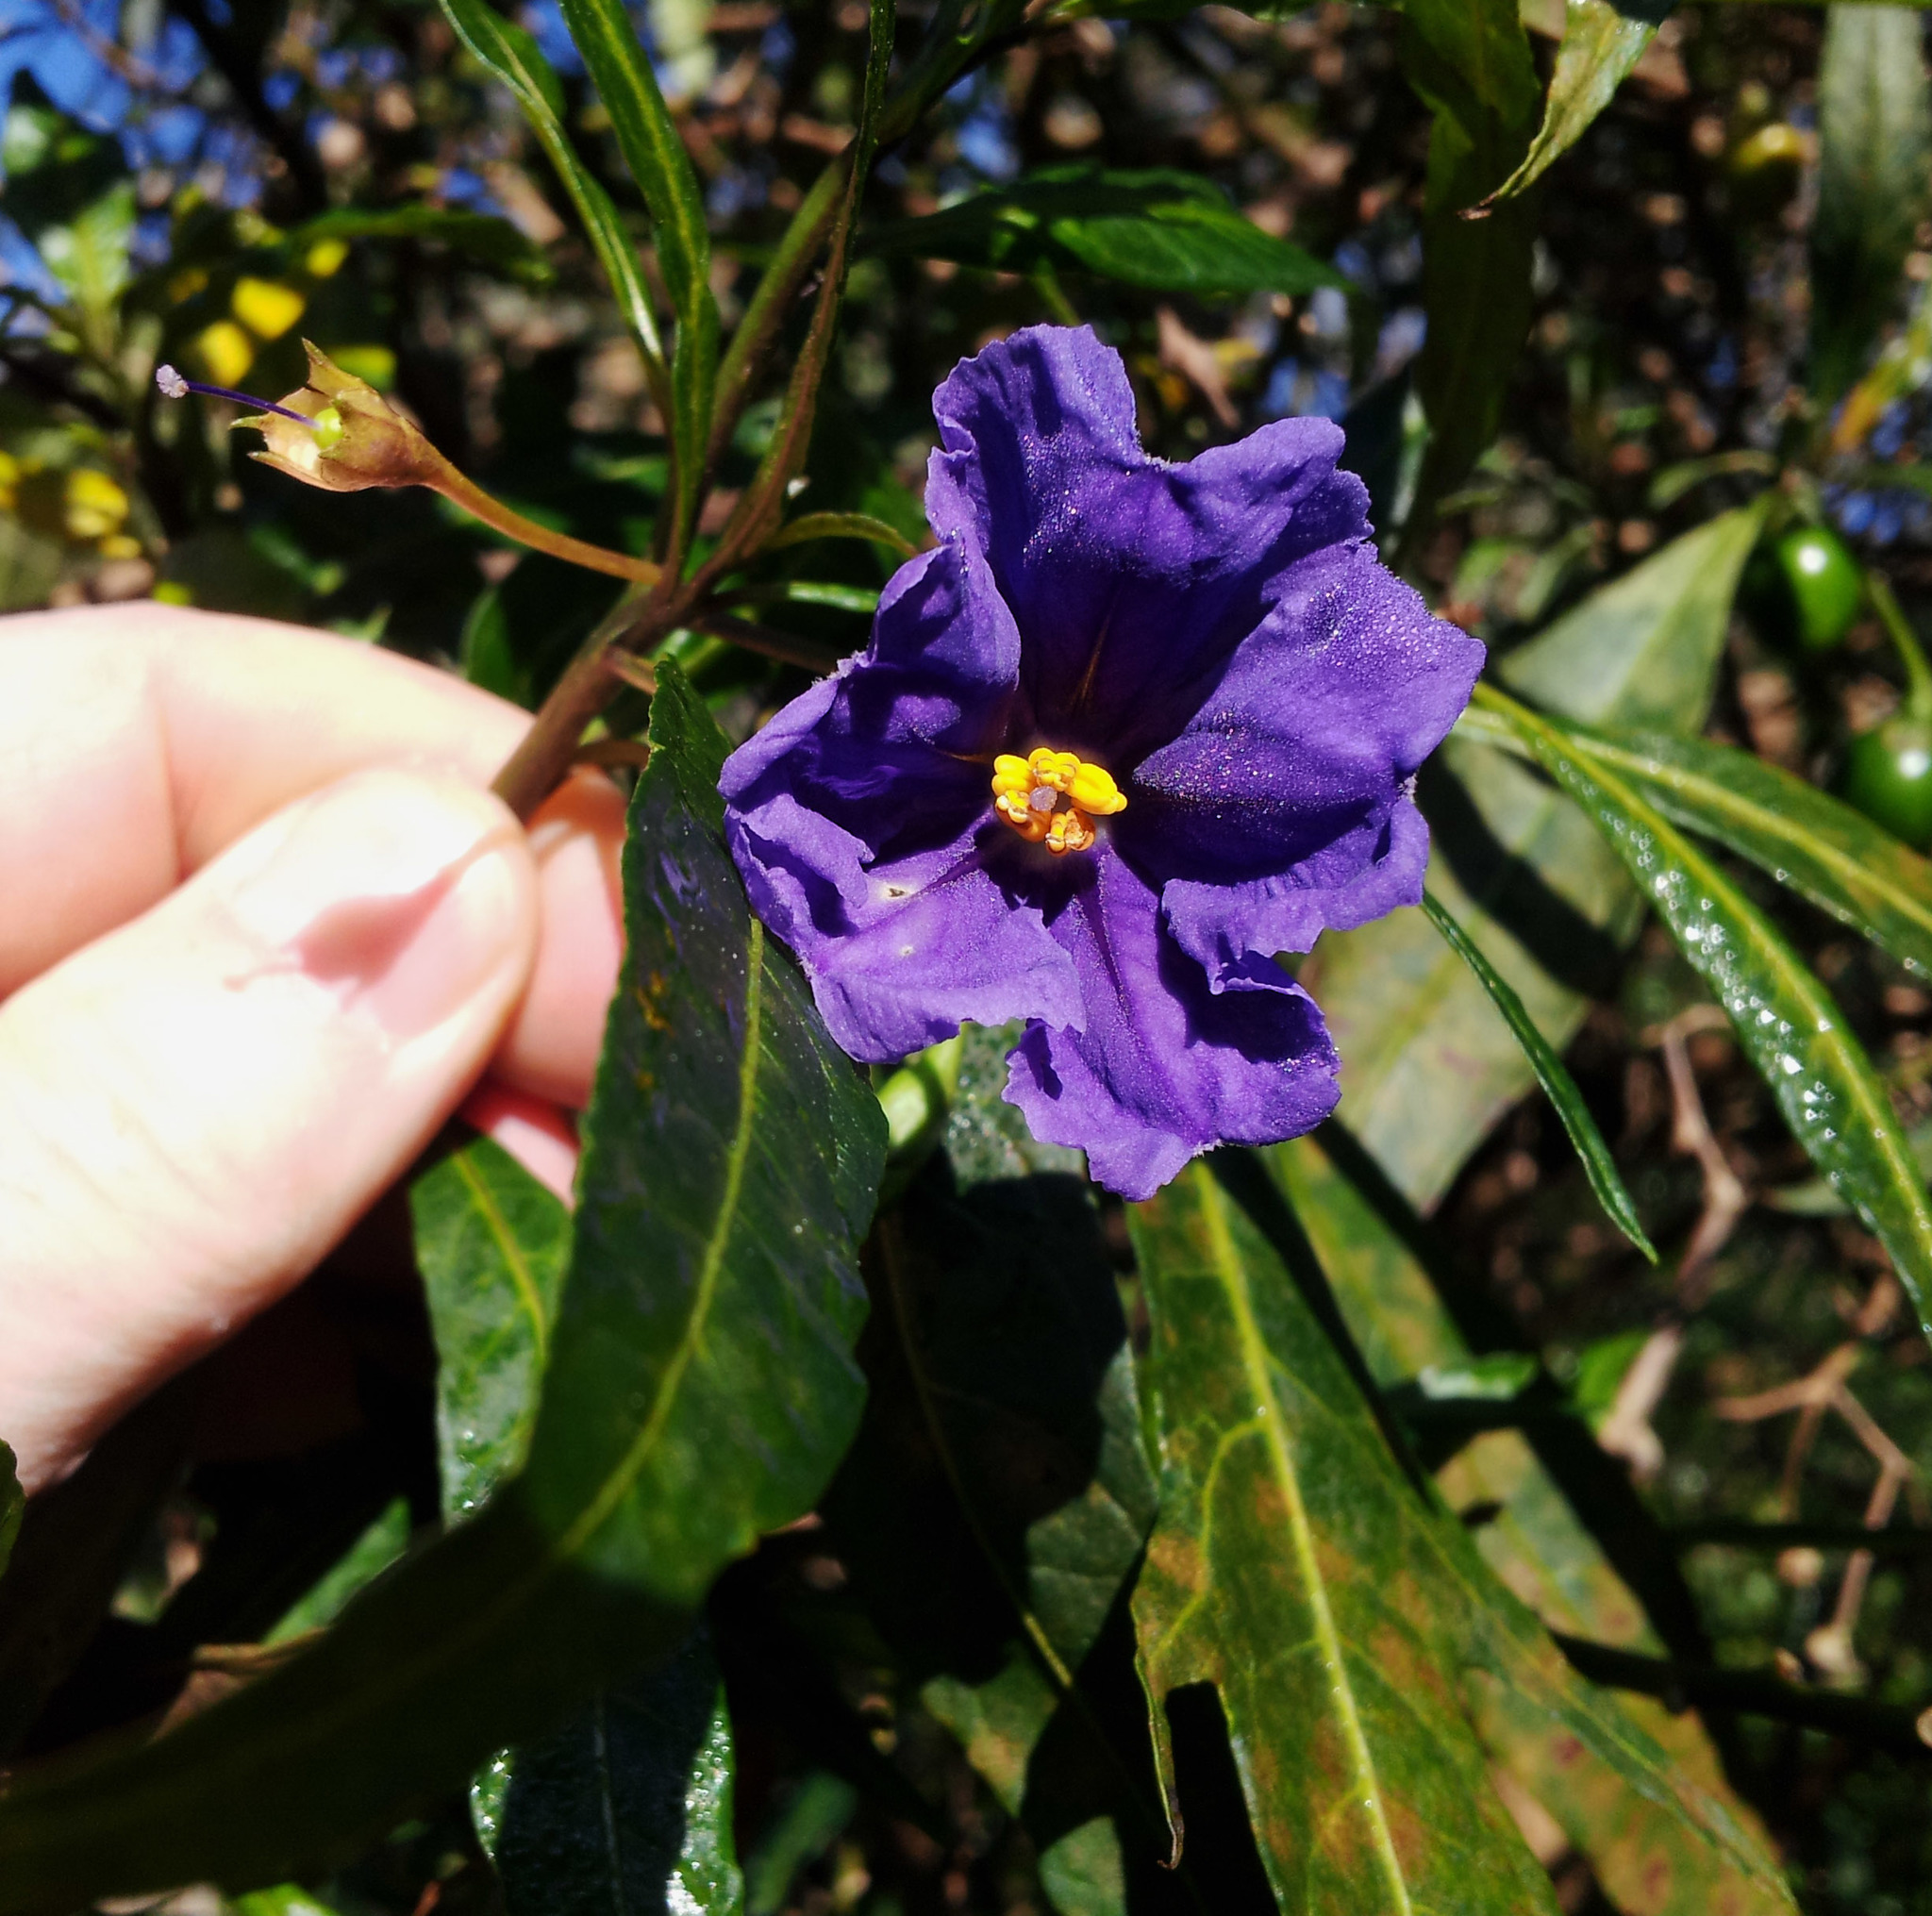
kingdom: Plantae
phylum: Tracheophyta
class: Magnoliopsida
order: Solanales
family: Solanaceae
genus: Solanum
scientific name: Solanum laciniatum
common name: Kangaroo-apple
